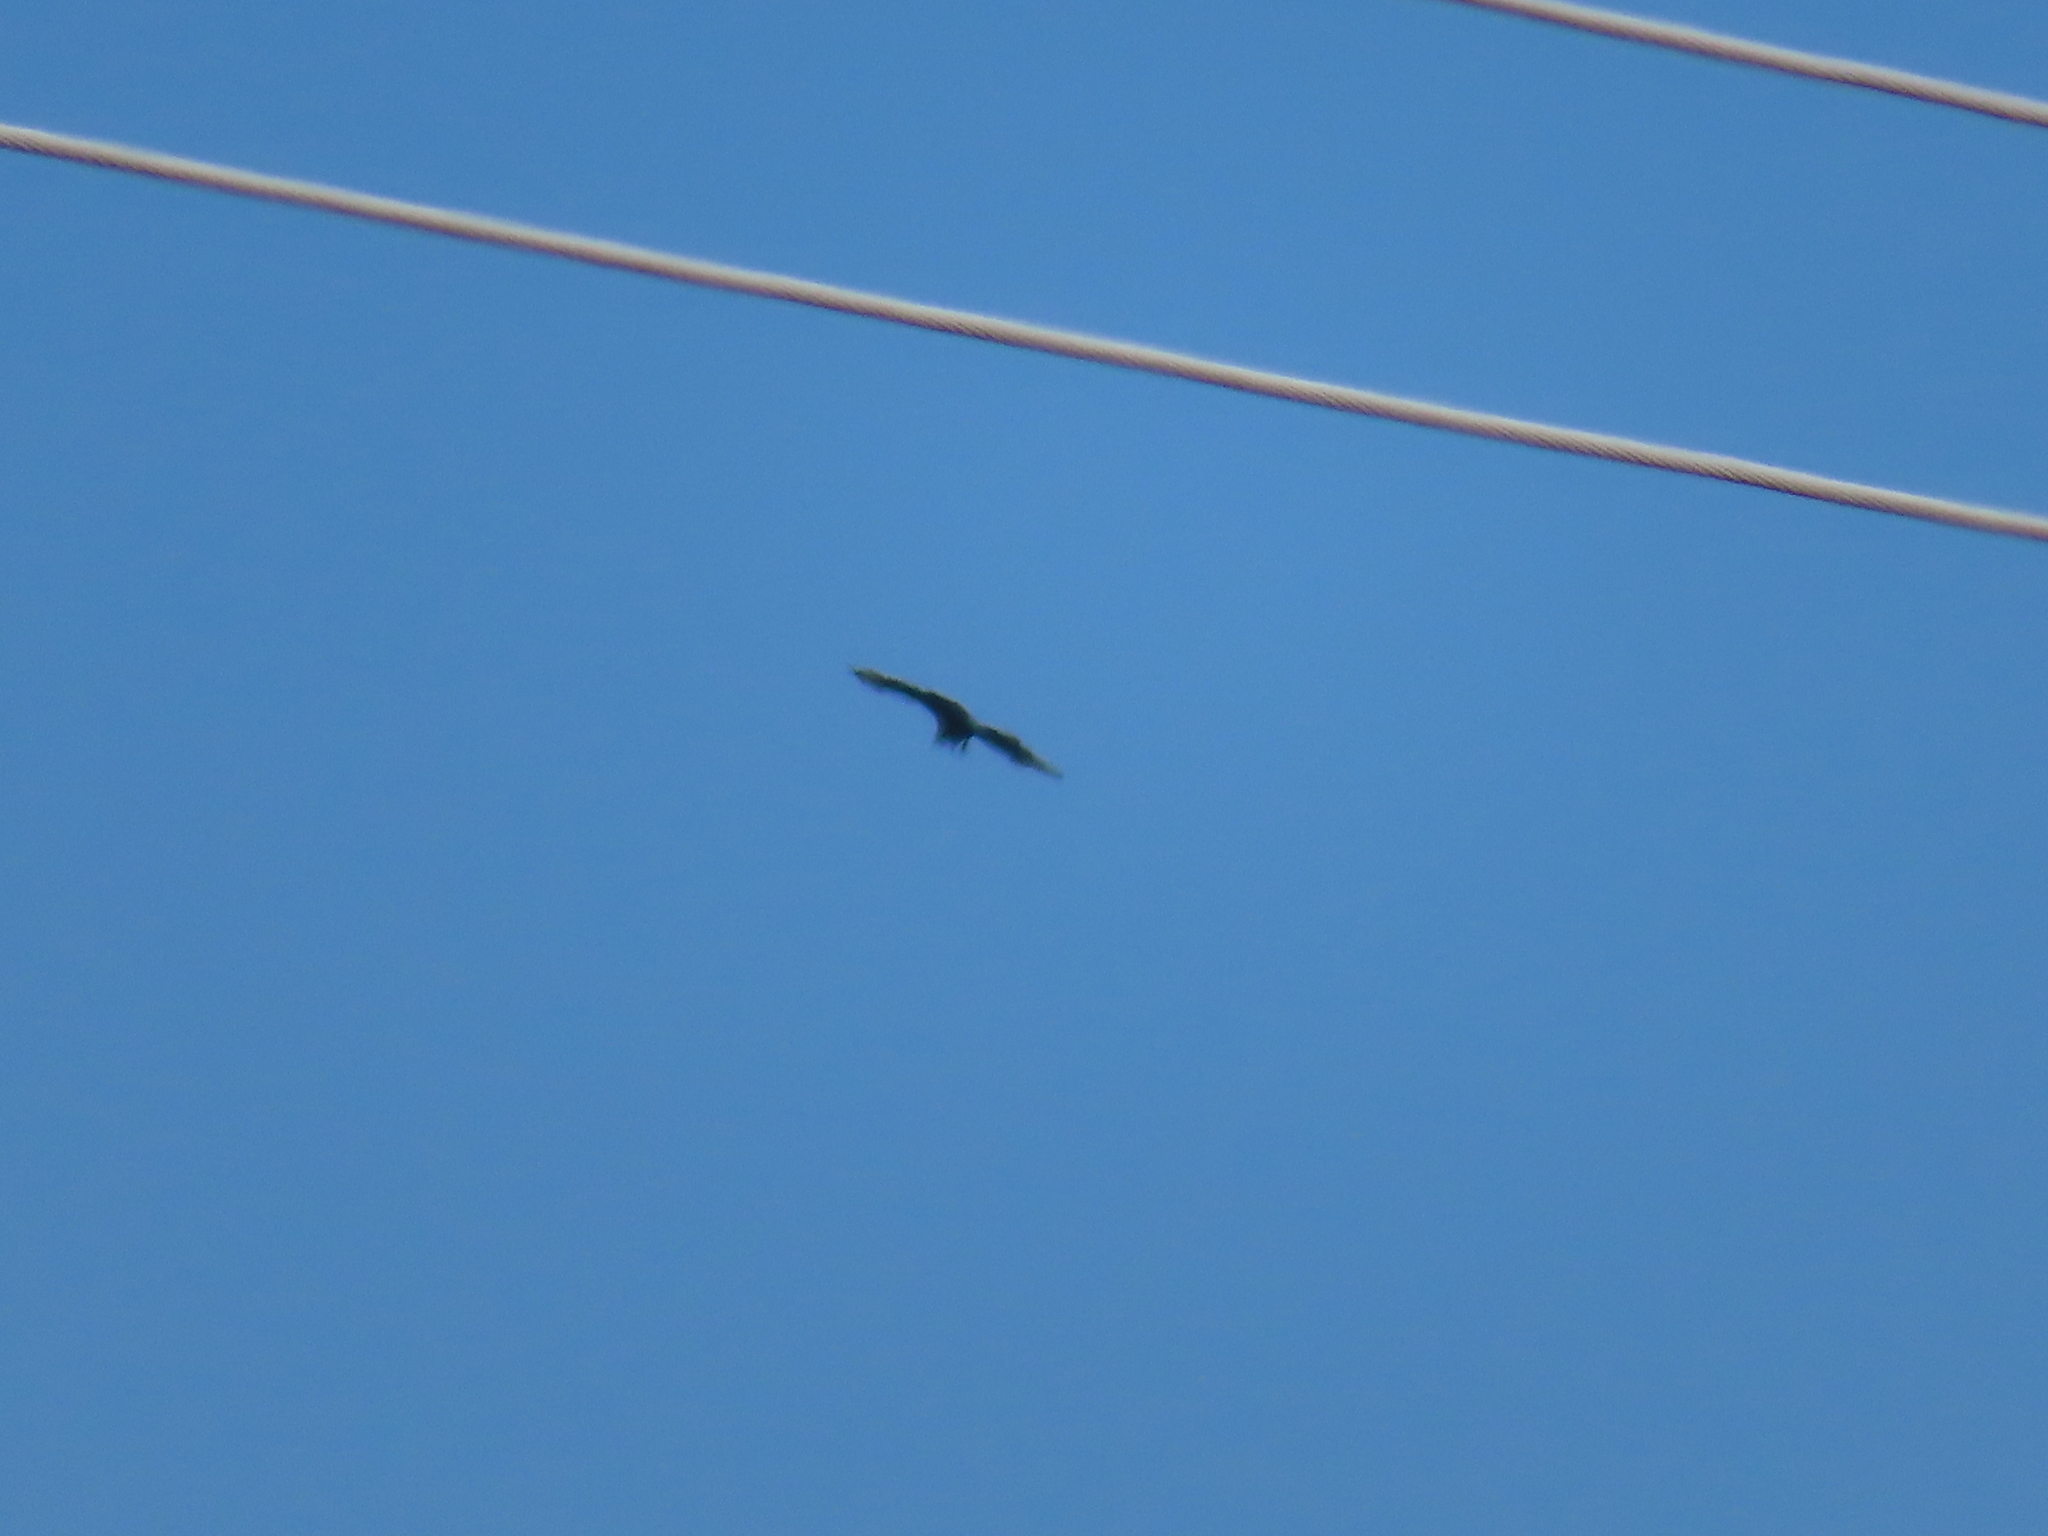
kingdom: Animalia
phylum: Chordata
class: Aves
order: Accipitriformes
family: Cathartidae
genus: Coragyps
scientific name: Coragyps atratus
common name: Black vulture
